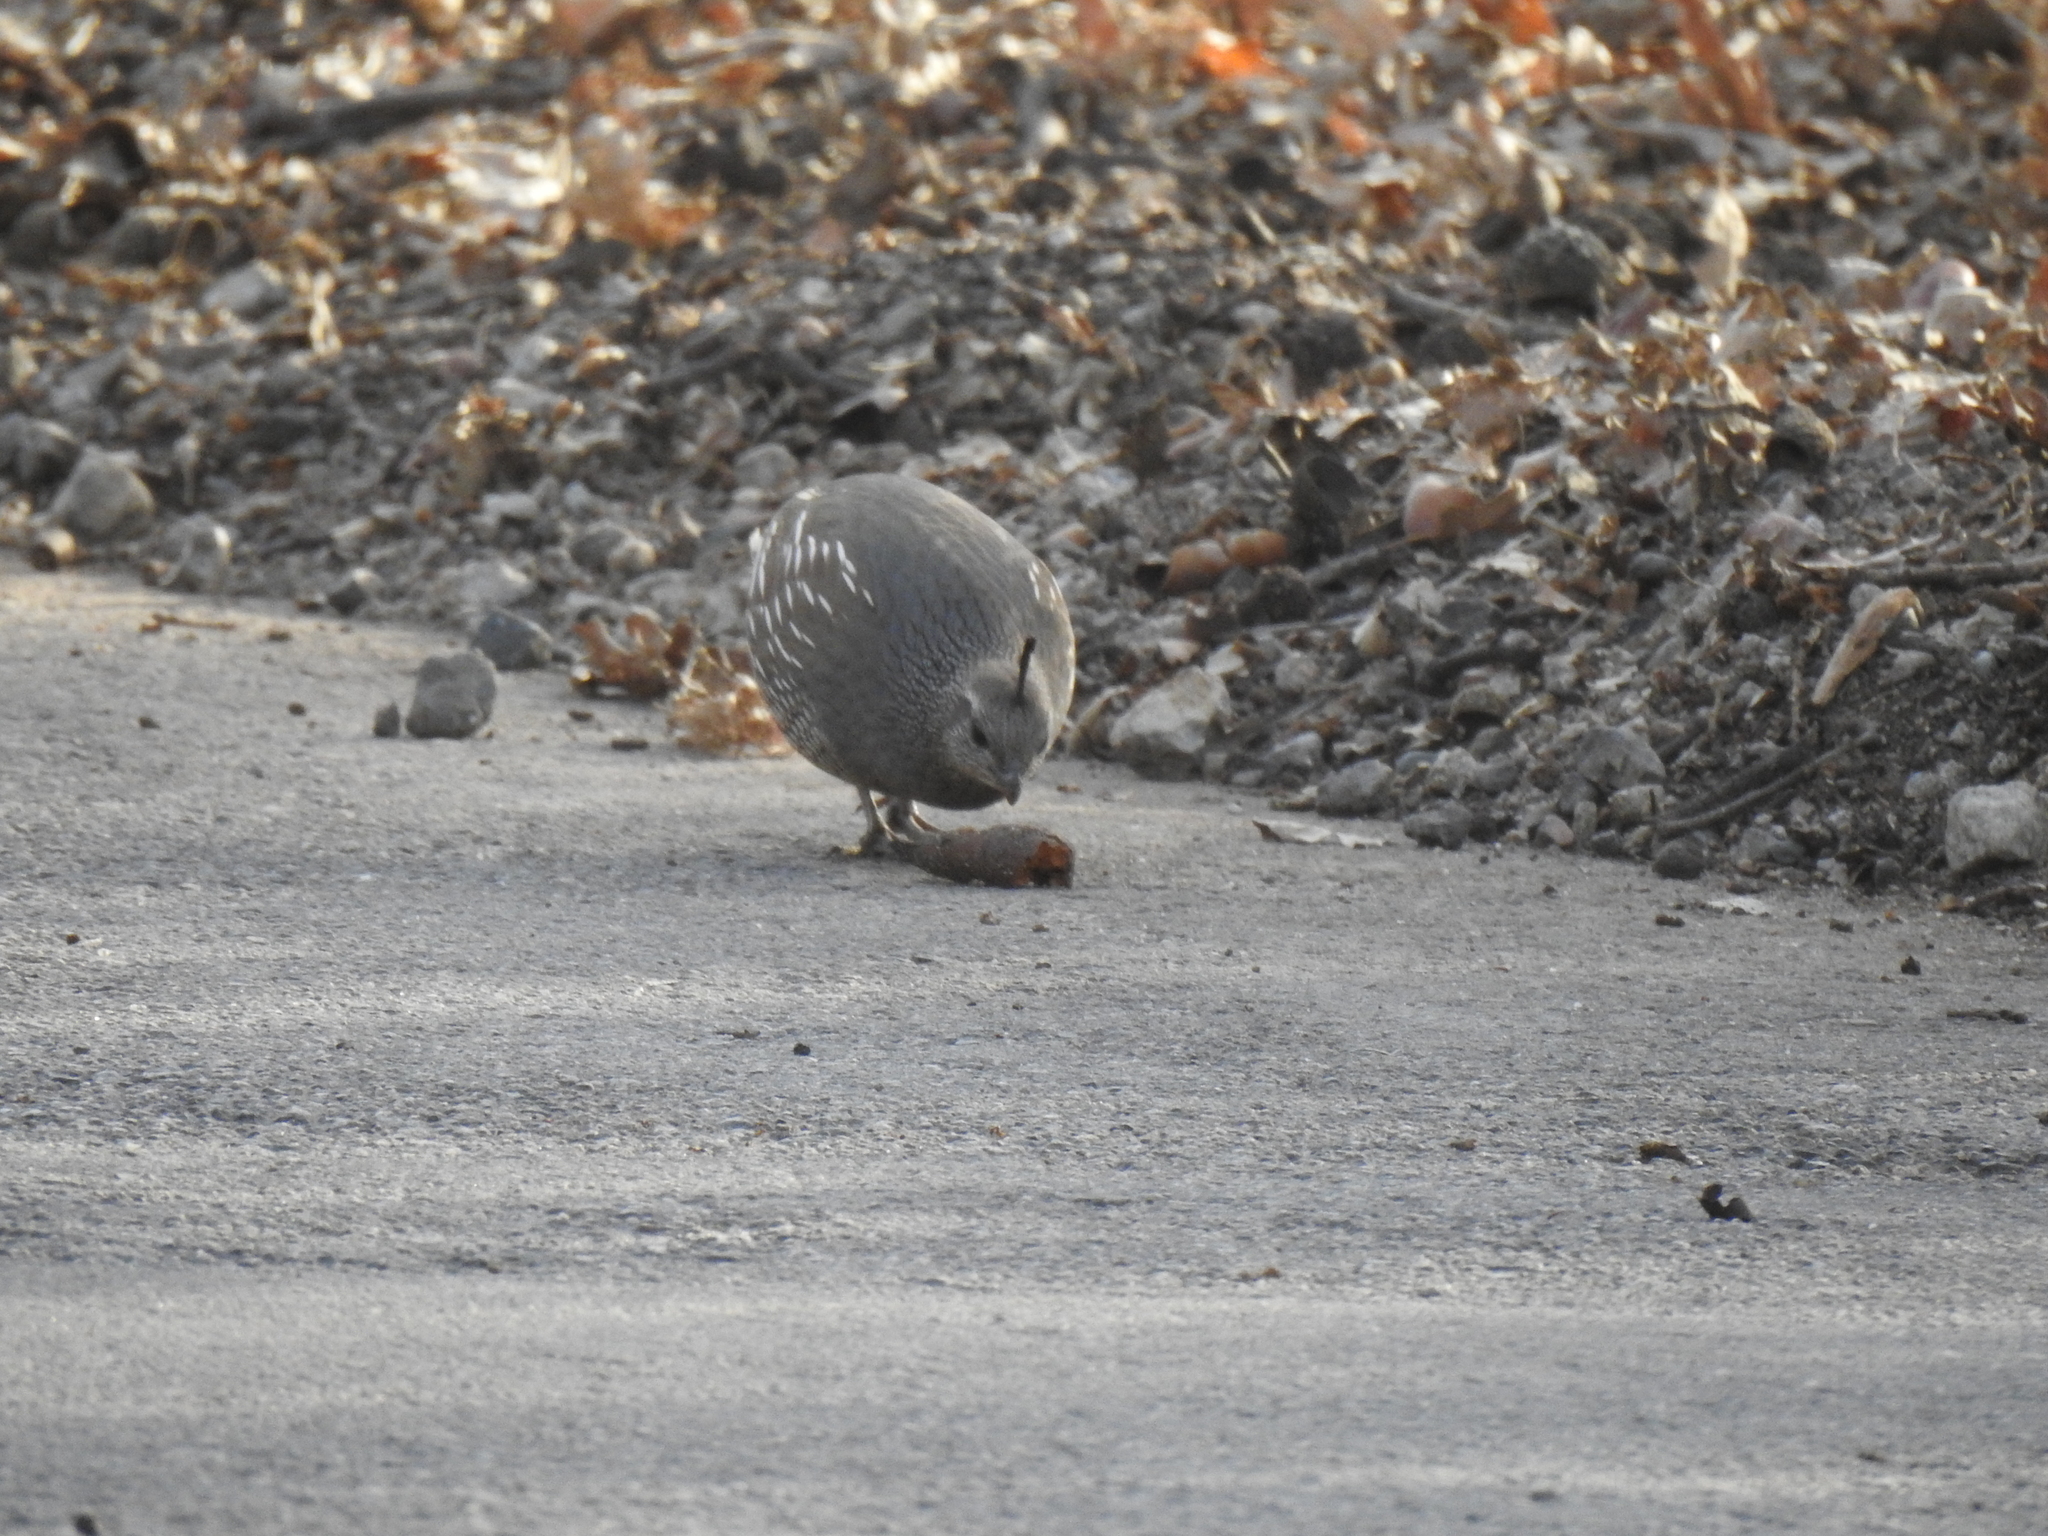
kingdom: Animalia
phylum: Chordata
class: Aves
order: Galliformes
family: Odontophoridae
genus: Callipepla
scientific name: Callipepla californica
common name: California quail
